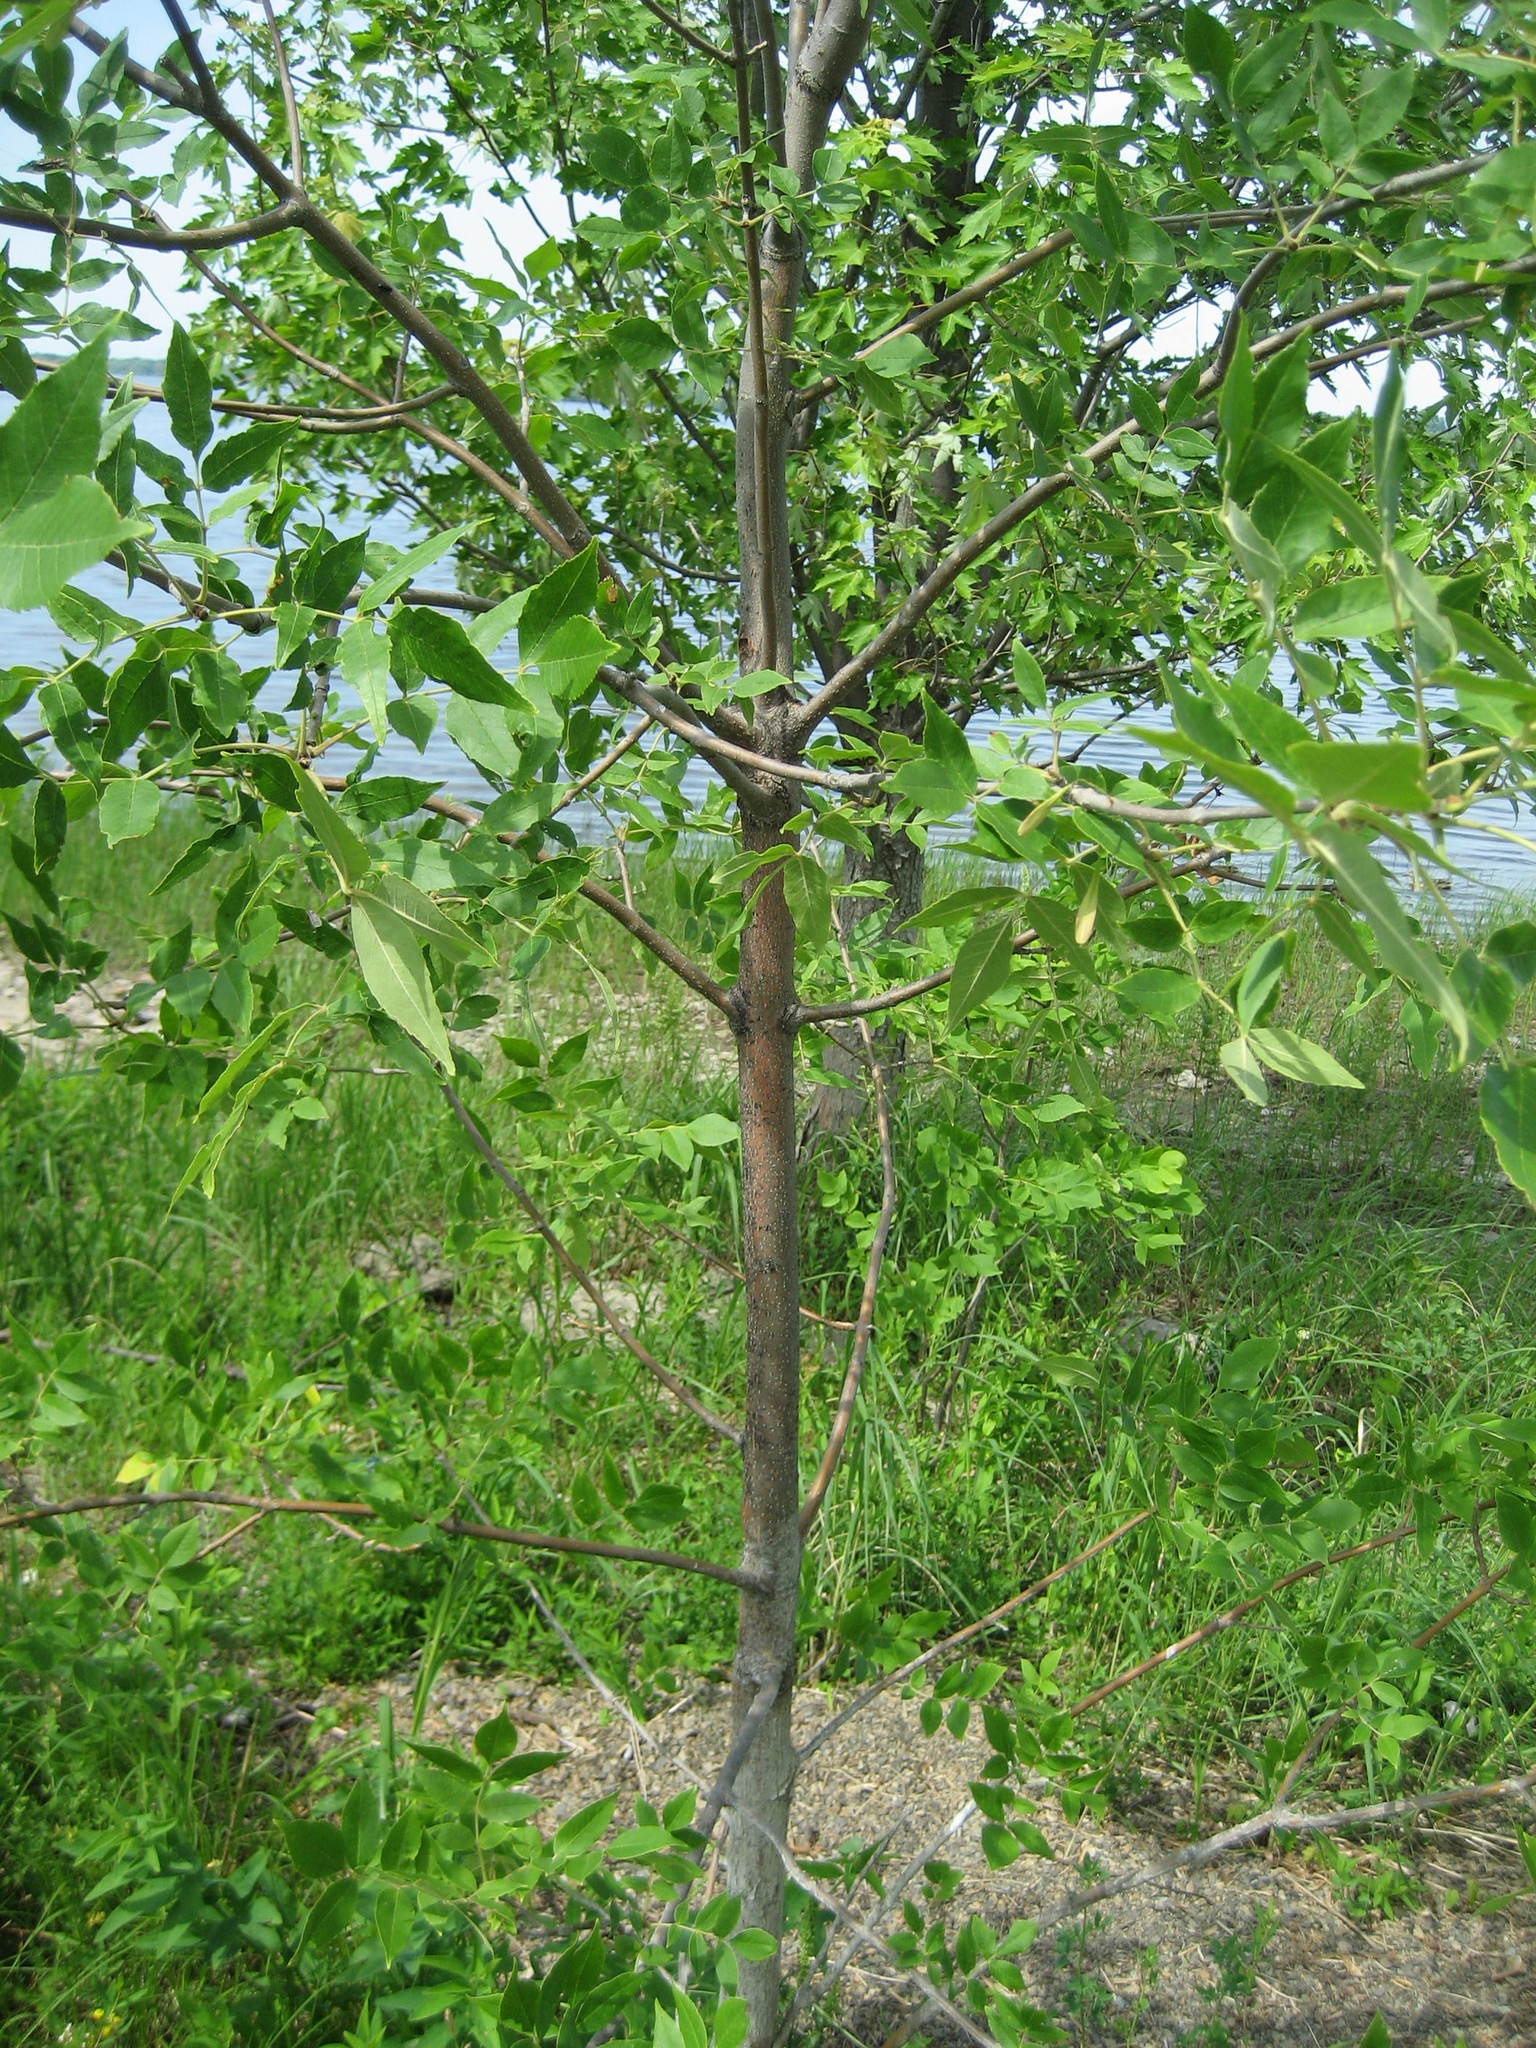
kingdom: Plantae
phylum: Tracheophyta
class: Magnoliopsida
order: Lamiales
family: Oleaceae
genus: Fraxinus
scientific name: Fraxinus pennsylvanica
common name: Green ash
